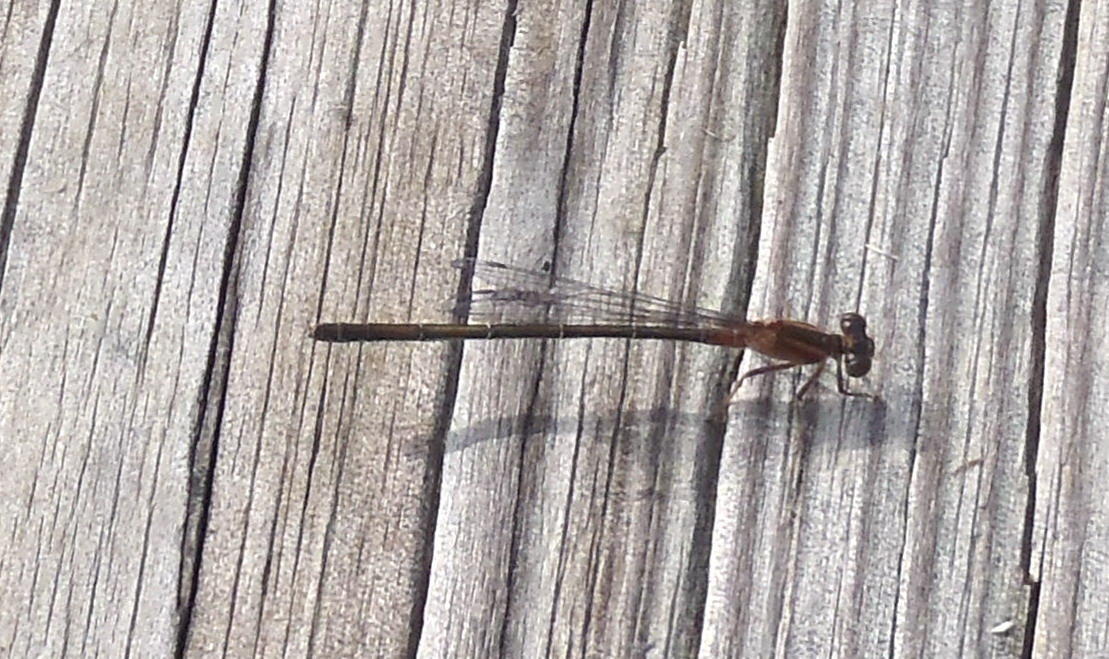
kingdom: Animalia
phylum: Arthropoda
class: Insecta
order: Odonata
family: Platycnemididae
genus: Elattoneura
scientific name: Elattoneura glauca
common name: Common threadtail
